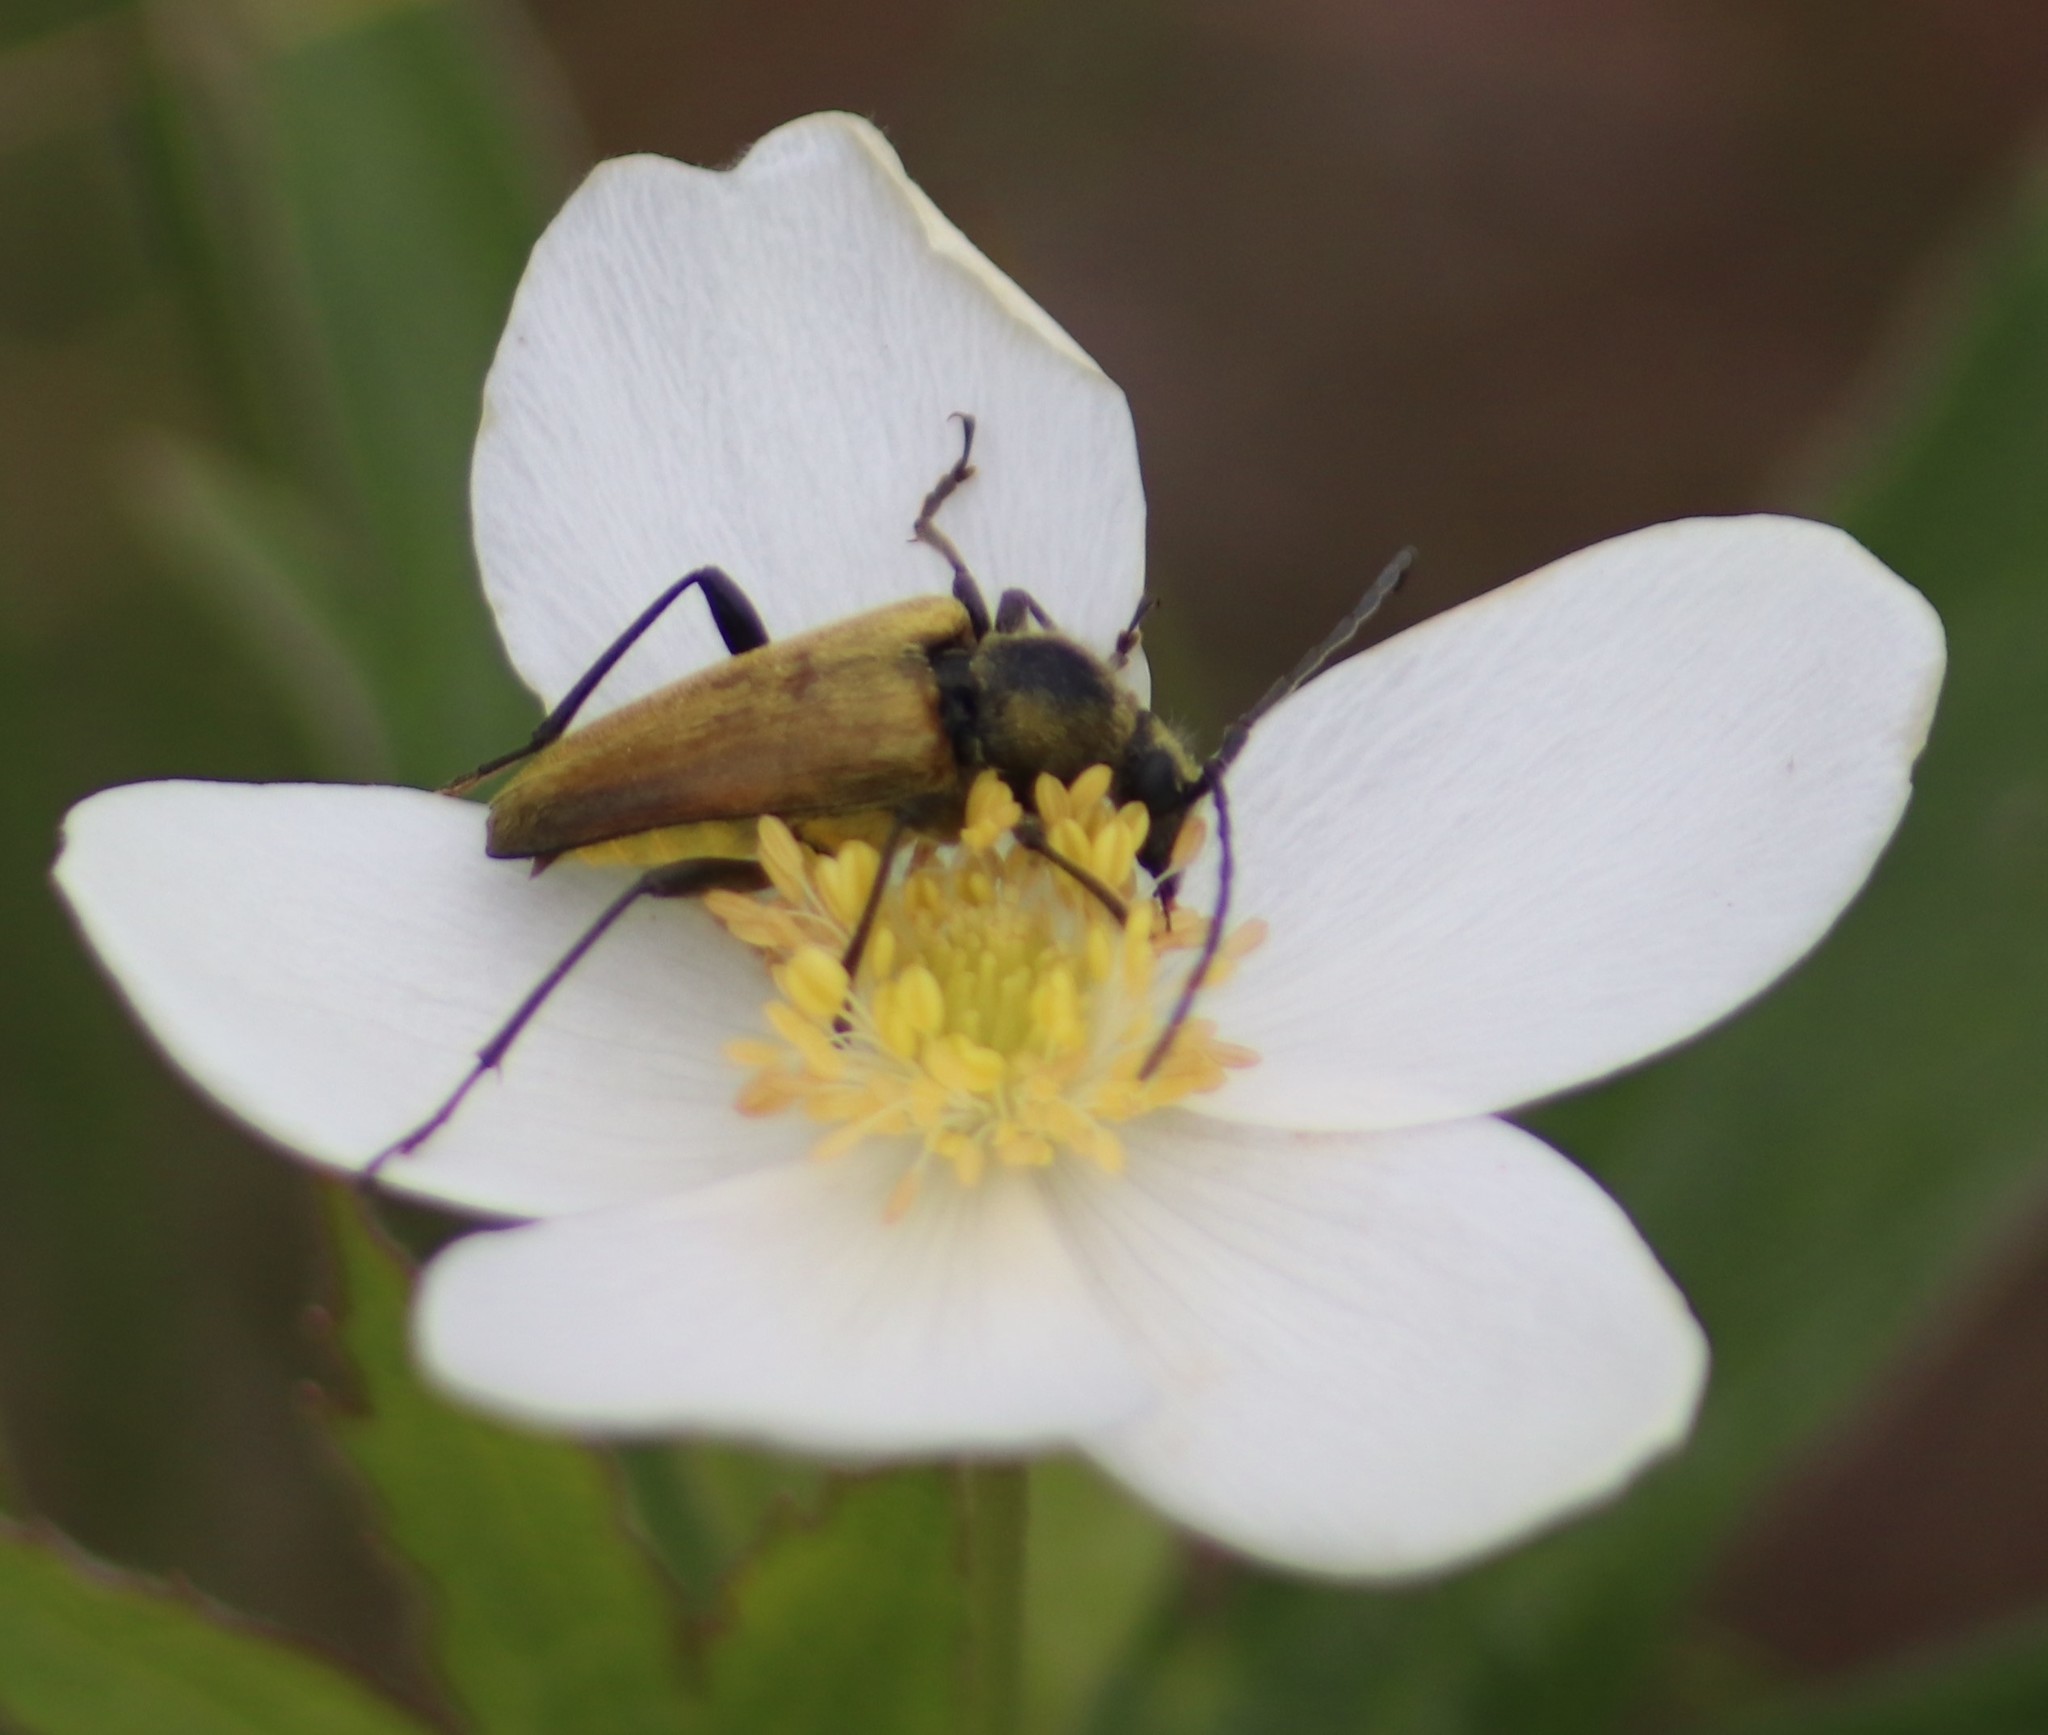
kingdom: Animalia
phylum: Arthropoda
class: Insecta
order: Coleoptera
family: Cerambycidae
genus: Cosmosalia
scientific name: Cosmosalia chrysocoma
